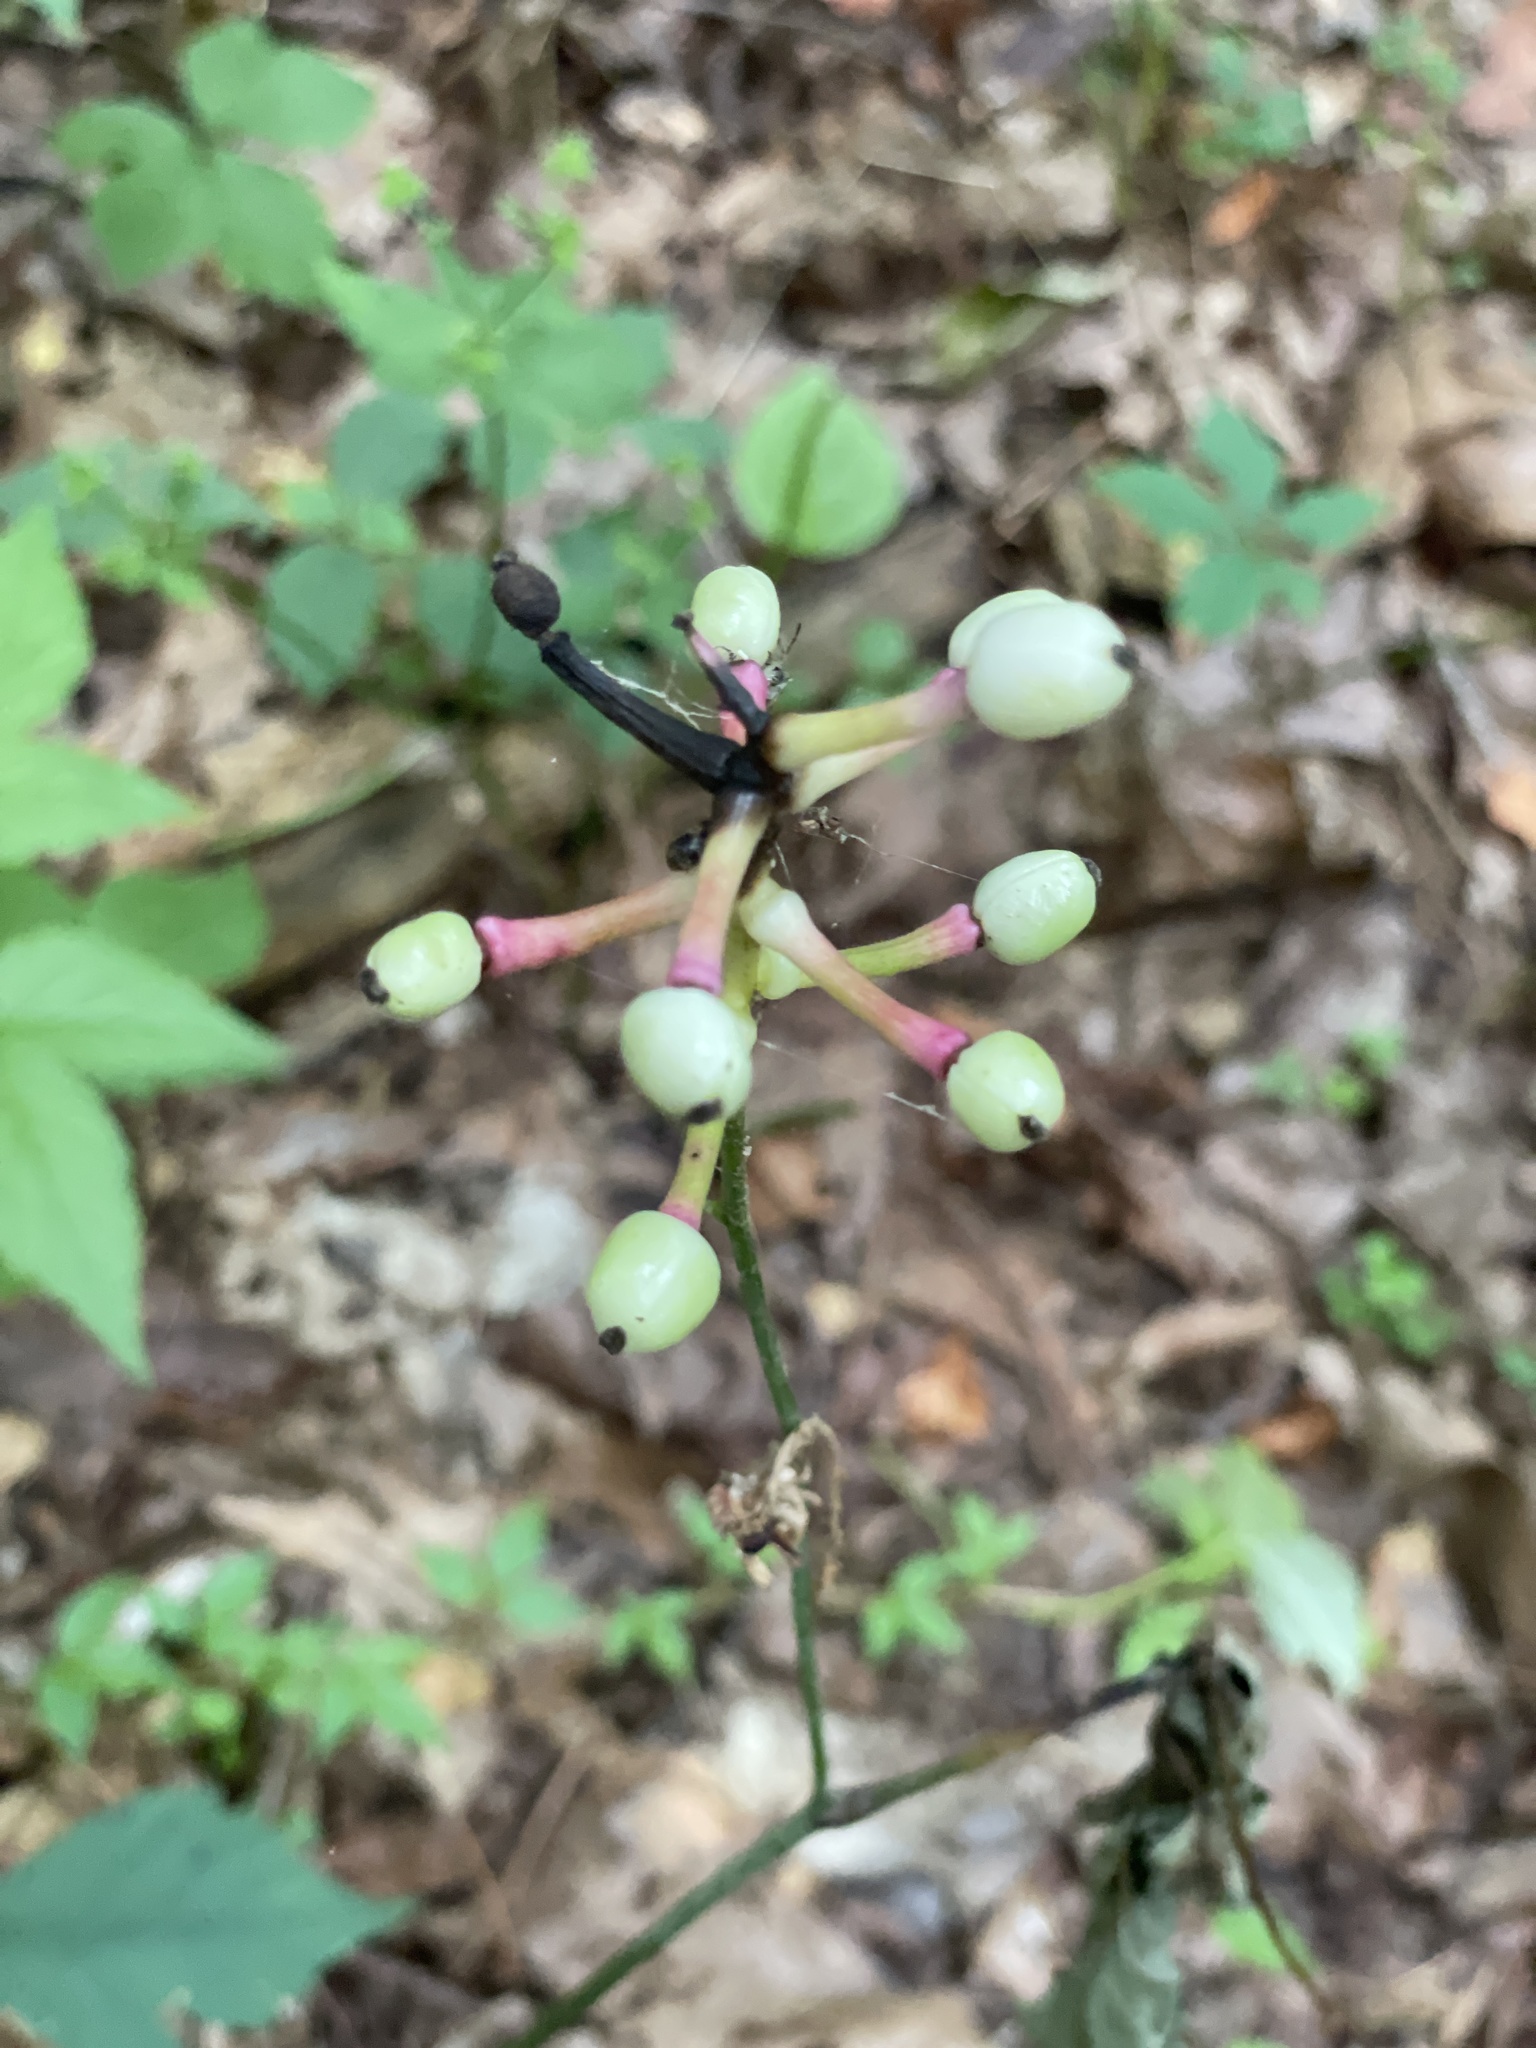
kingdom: Plantae
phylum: Tracheophyta
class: Magnoliopsida
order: Ranunculales
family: Ranunculaceae
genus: Actaea
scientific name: Actaea pachypoda
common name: Doll's-eyes
